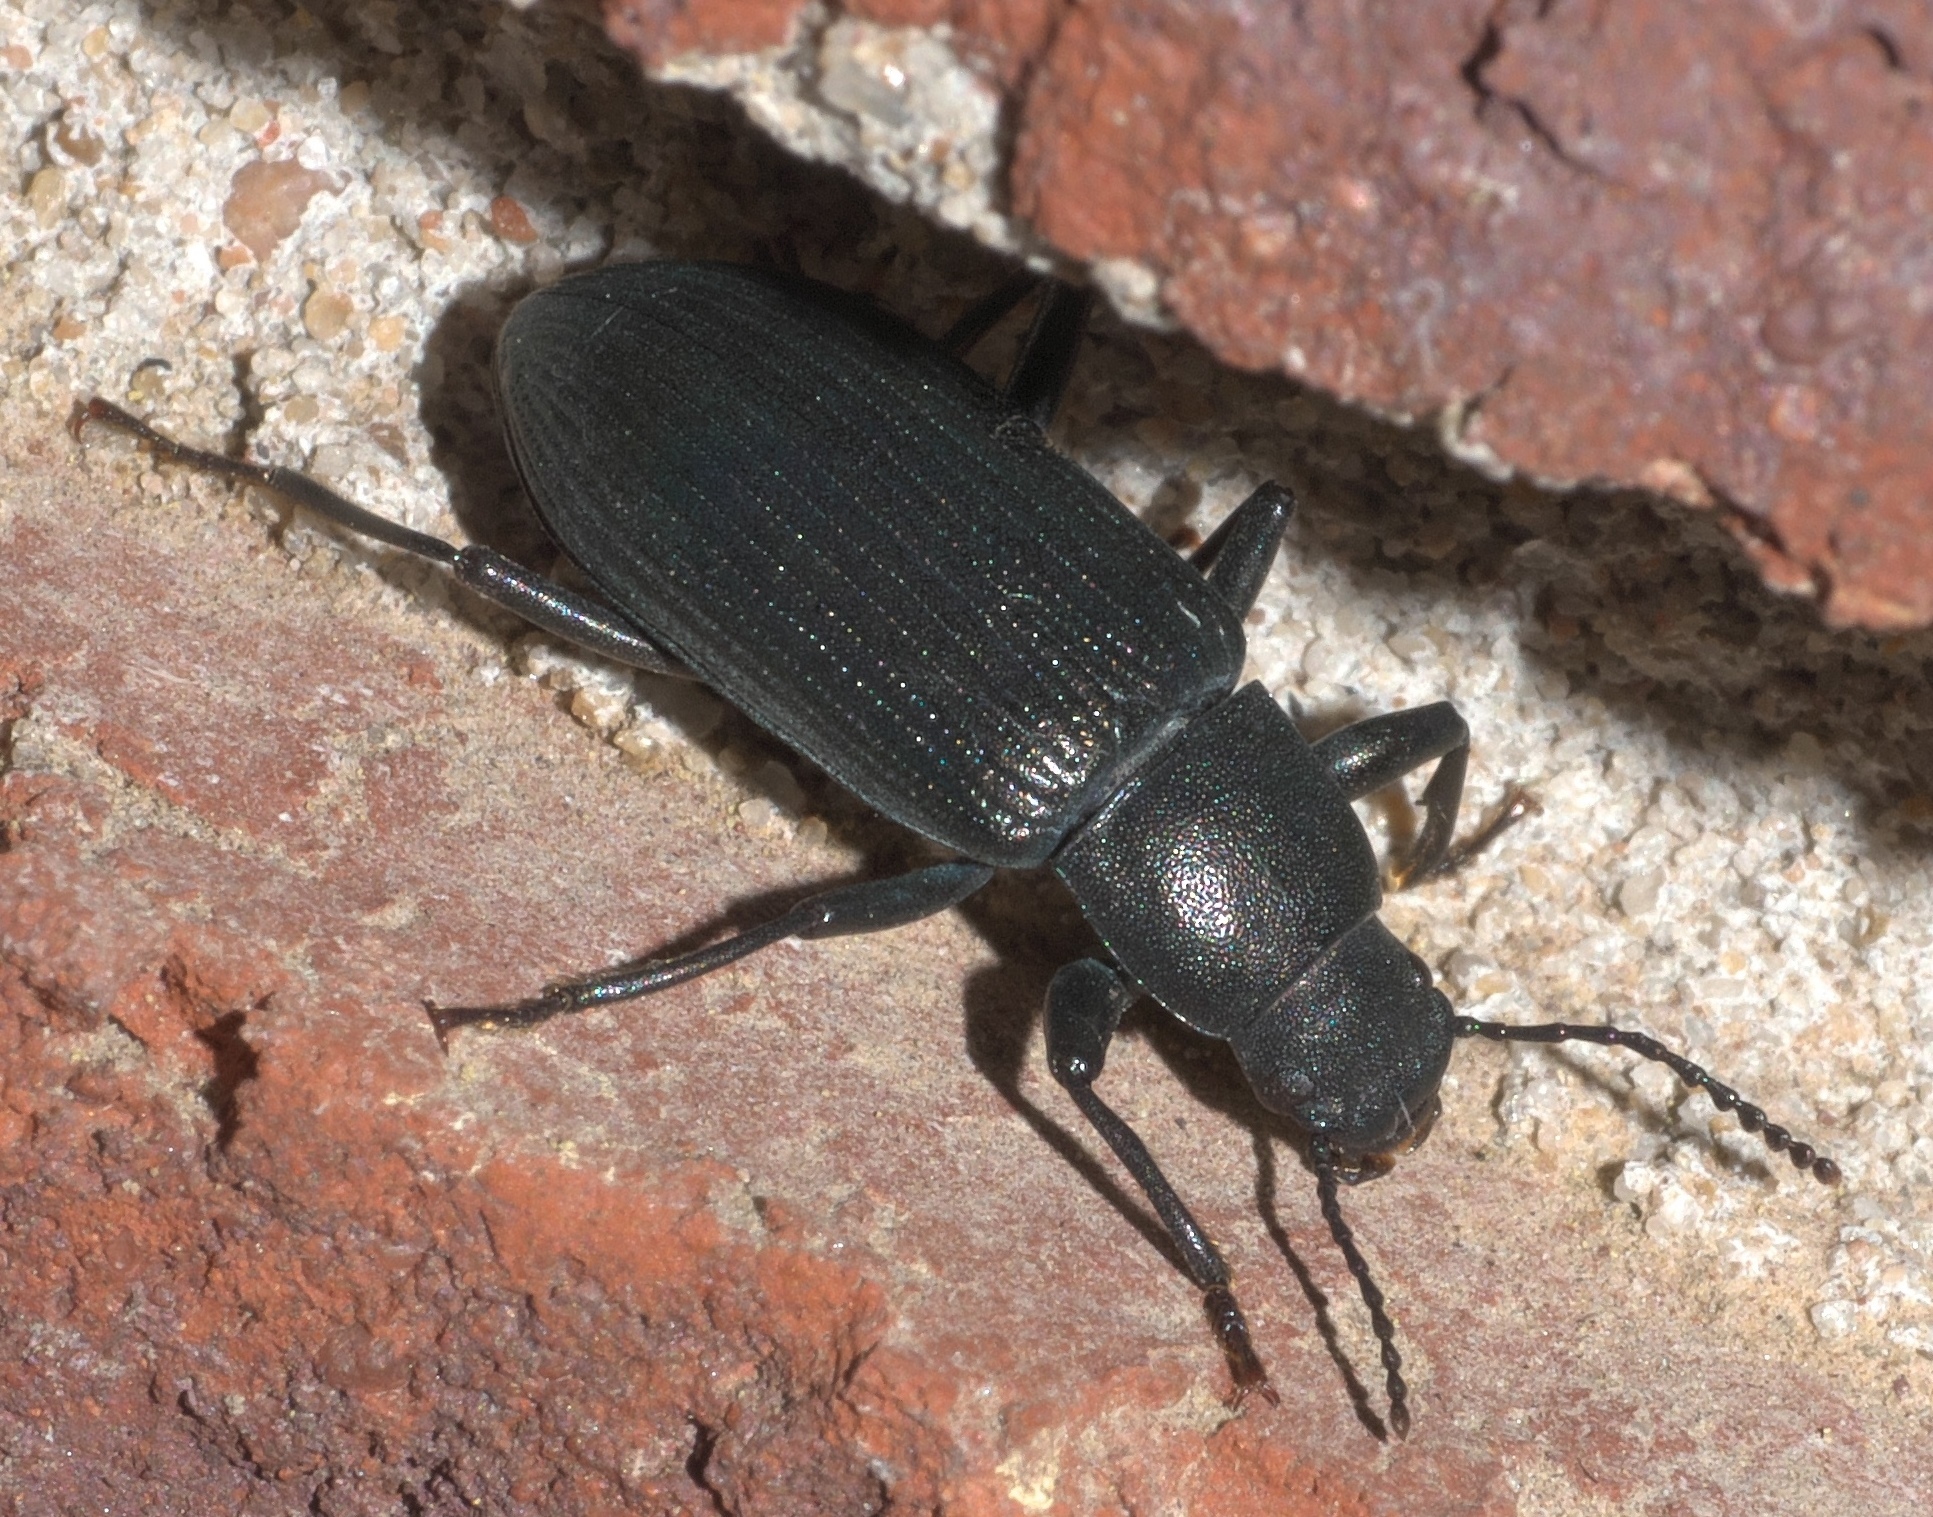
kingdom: Animalia
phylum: Arthropoda
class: Insecta
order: Coleoptera
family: Tenebrionidae
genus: Xylopinus
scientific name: Xylopinus saperdoides
